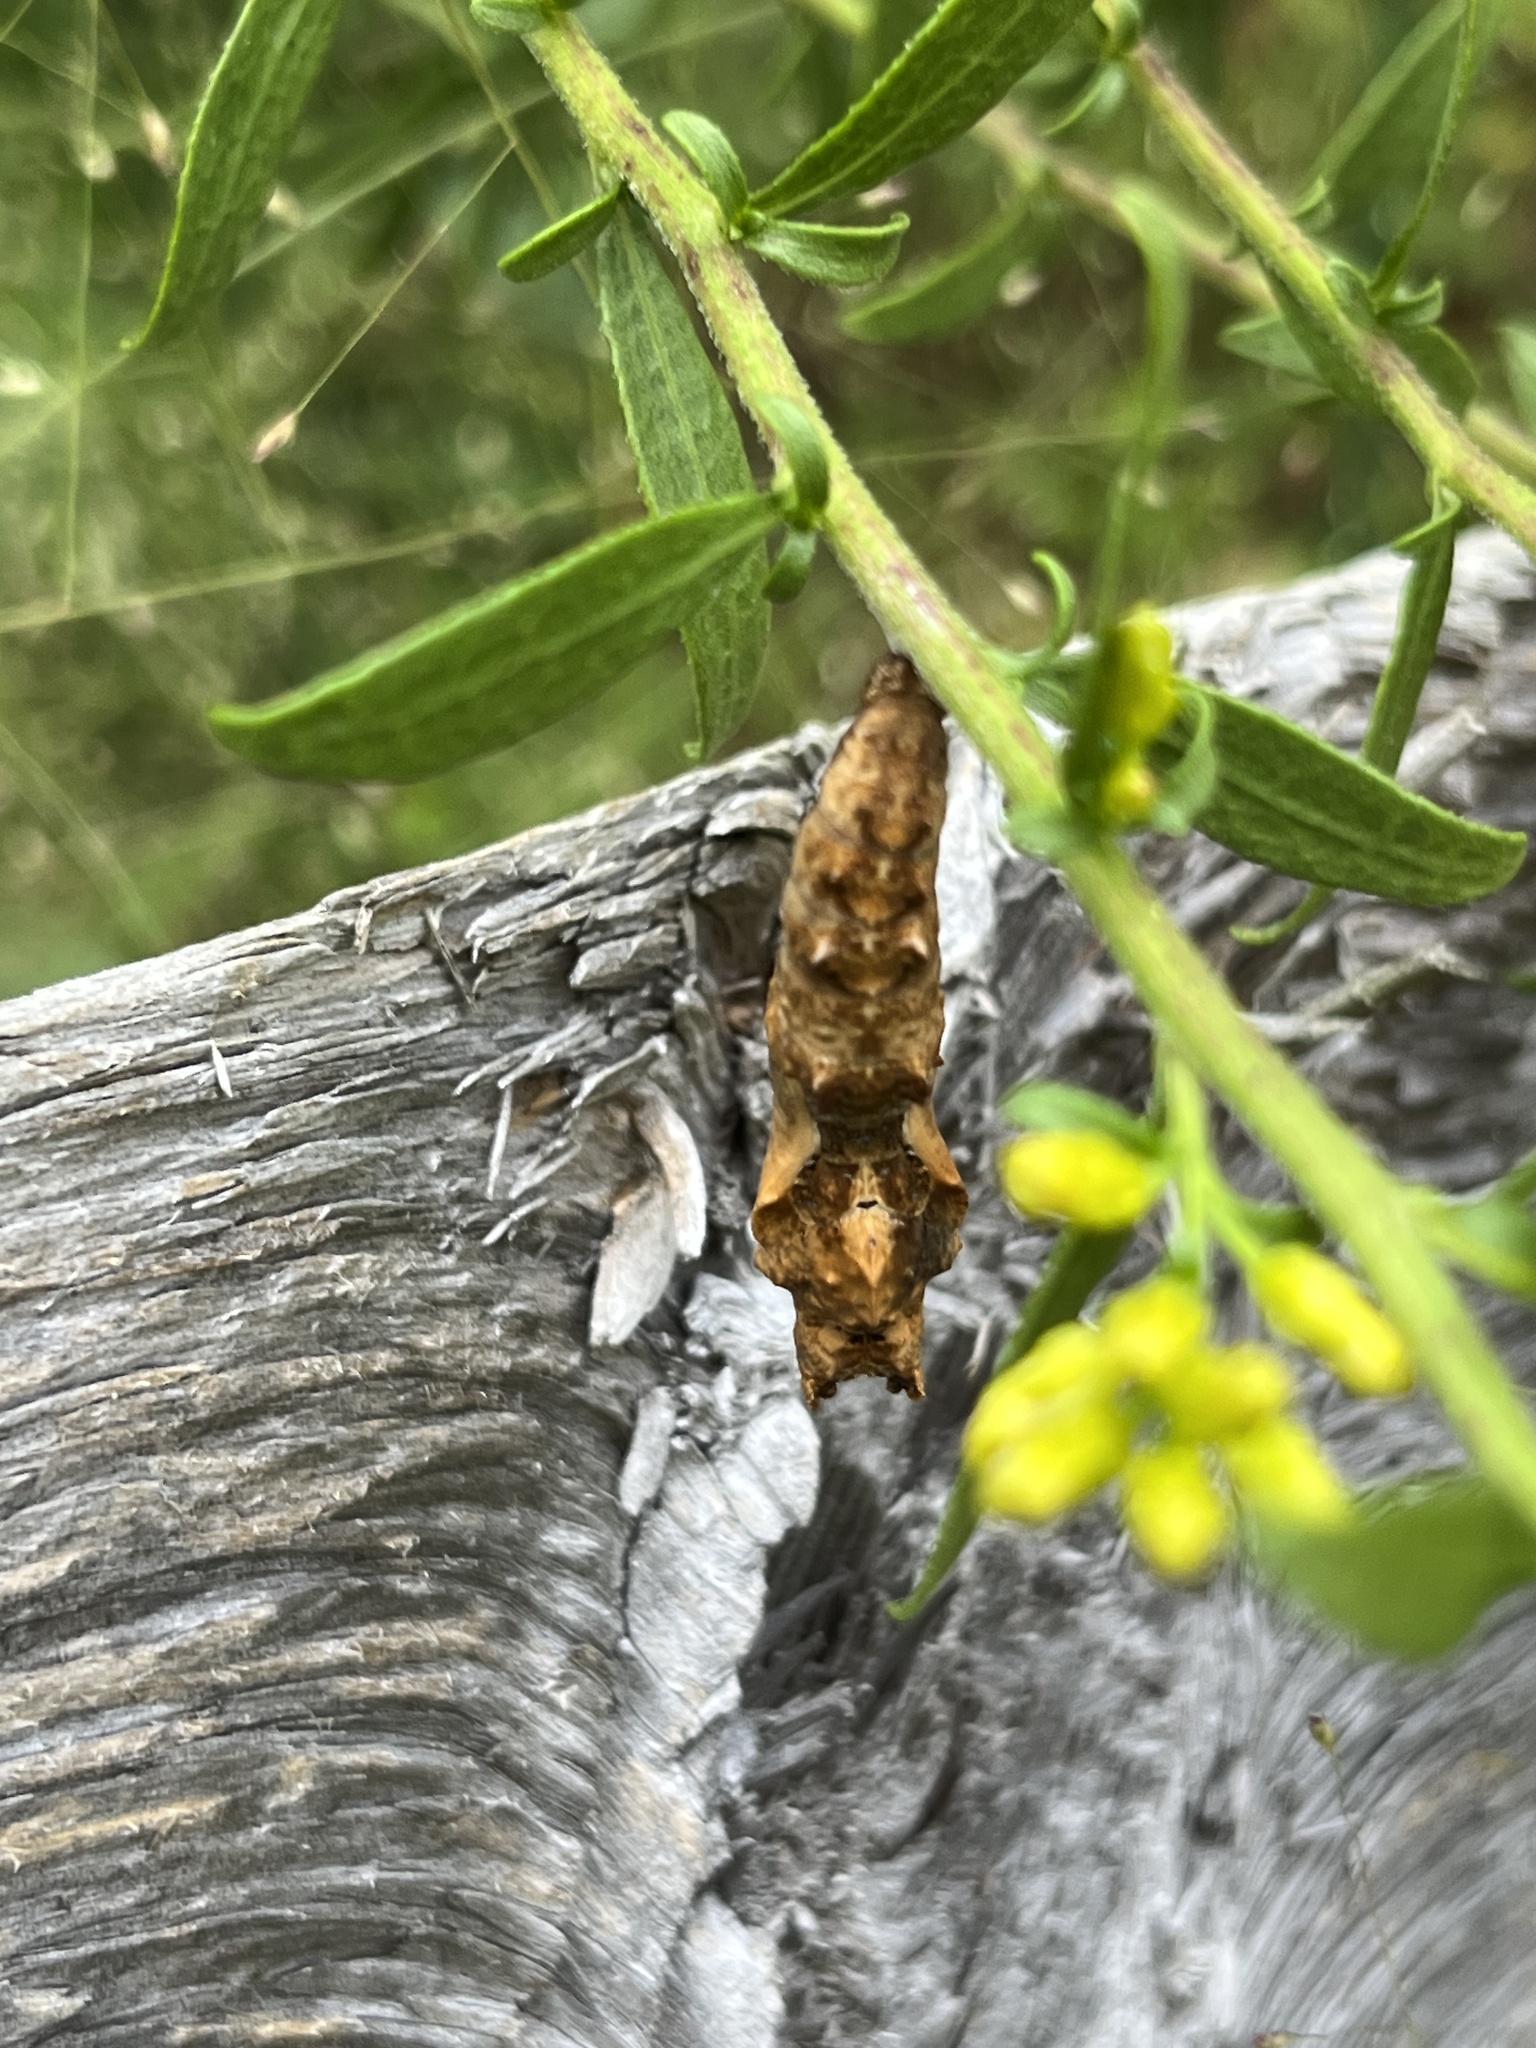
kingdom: Animalia
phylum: Arthropoda
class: Insecta
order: Lepidoptera
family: Nymphalidae
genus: Dione
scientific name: Dione vanillae
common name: Gulf fritillary
